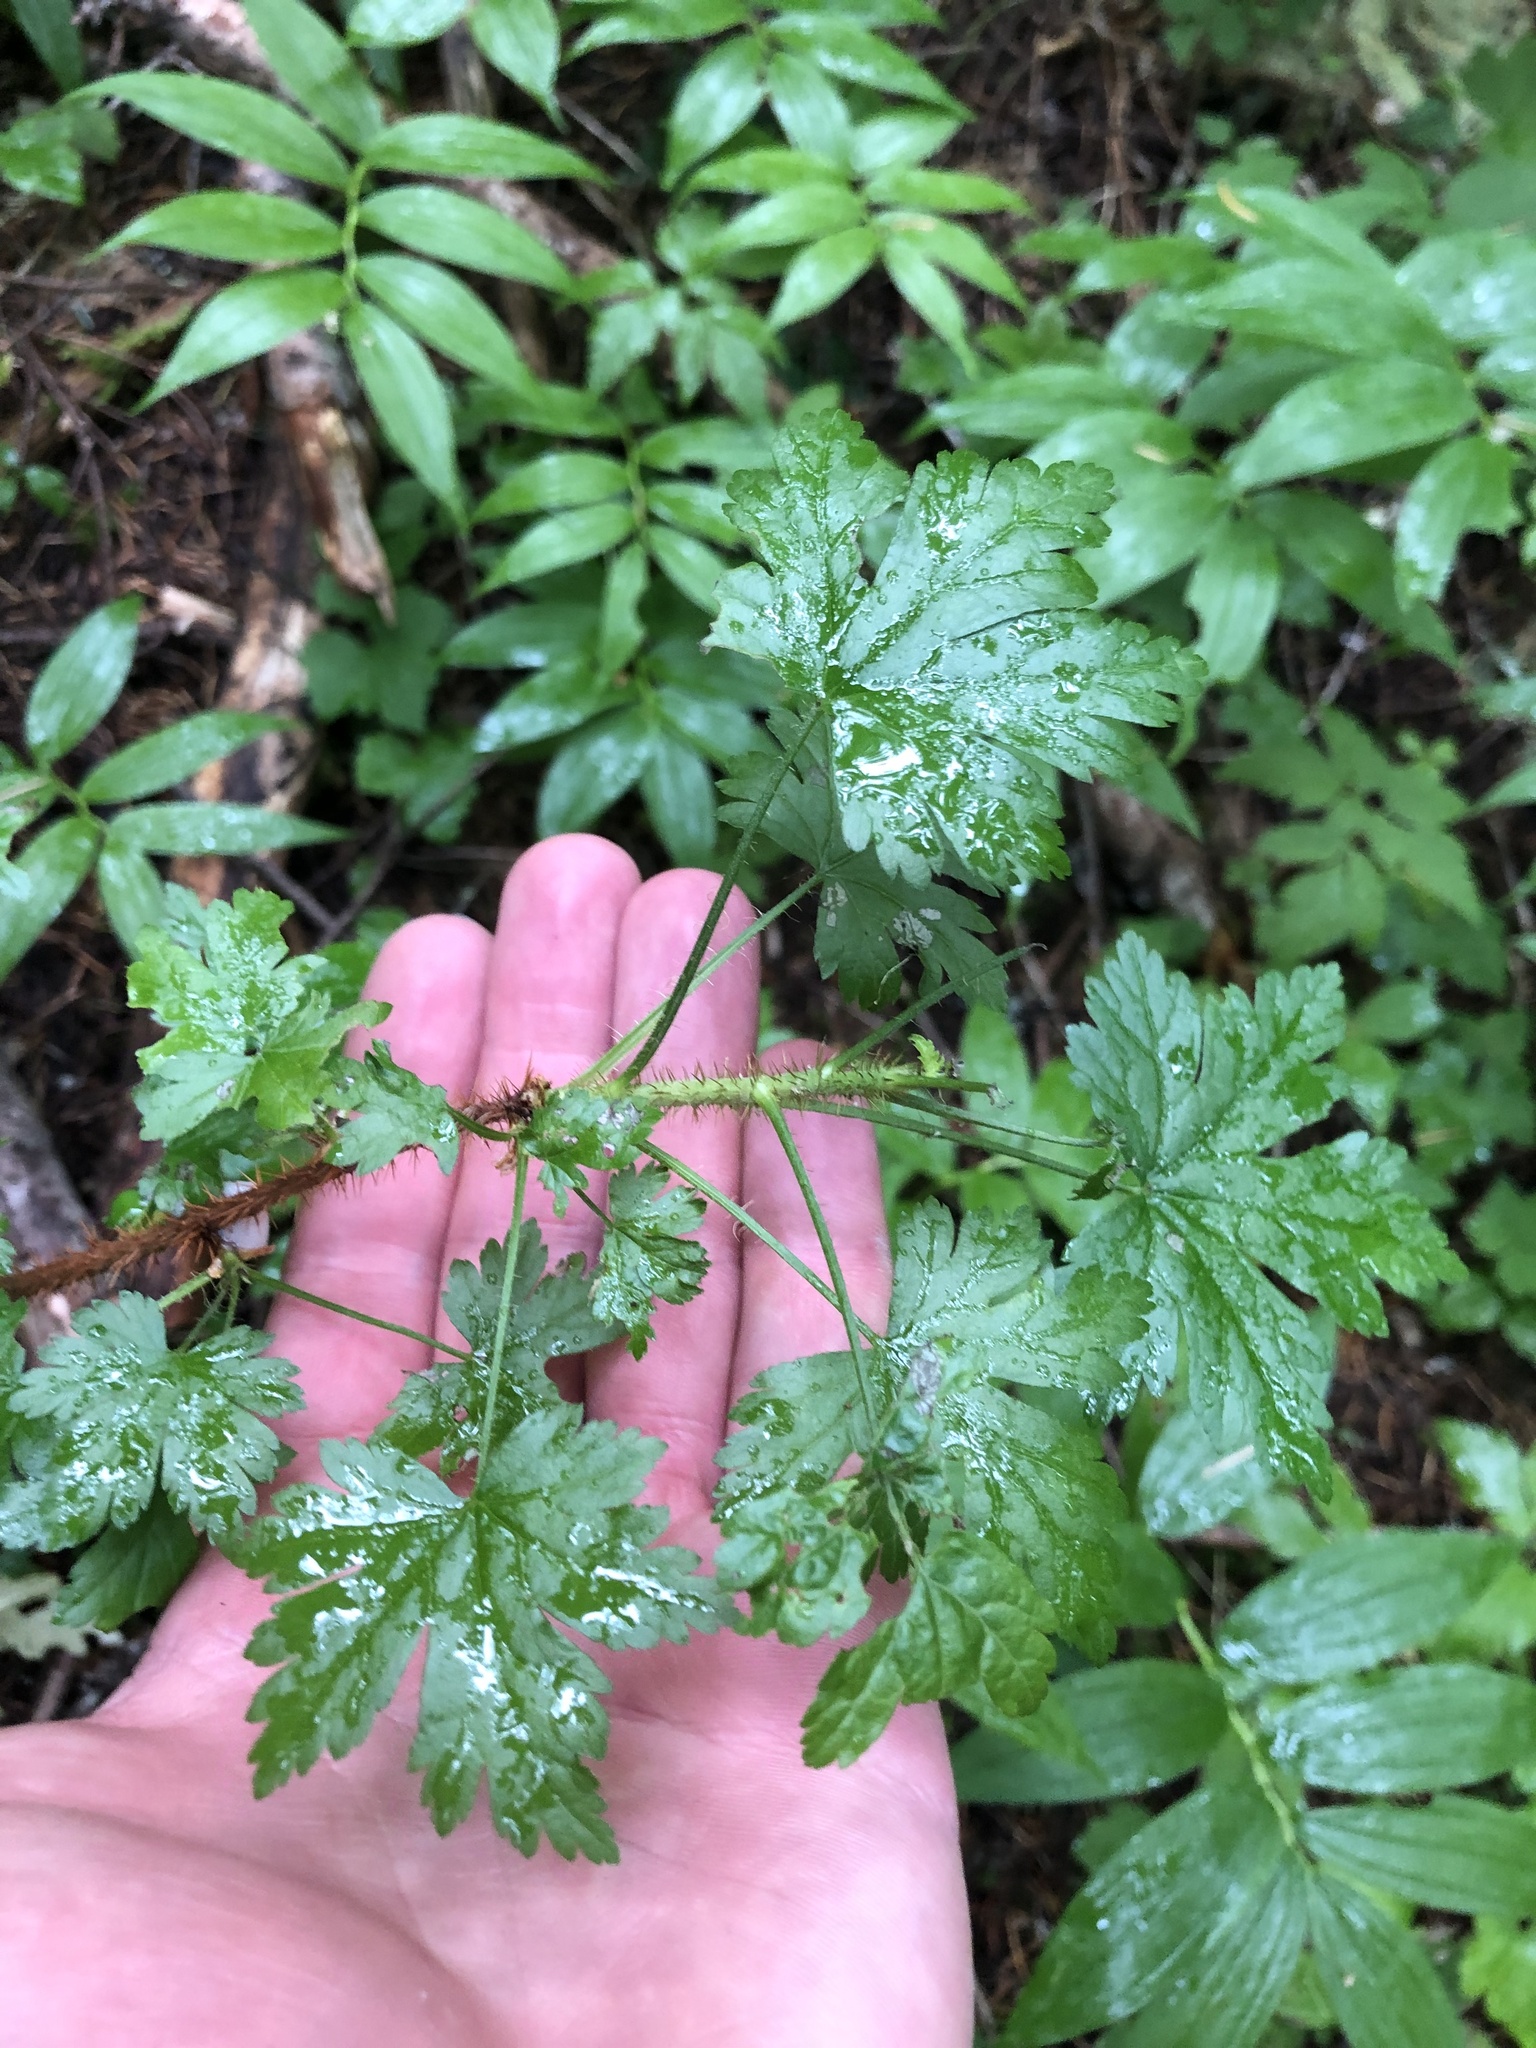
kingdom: Plantae
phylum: Tracheophyta
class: Magnoliopsida
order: Saxifragales
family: Grossulariaceae
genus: Ribes
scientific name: Ribes lacustre
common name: Black gooseberry
